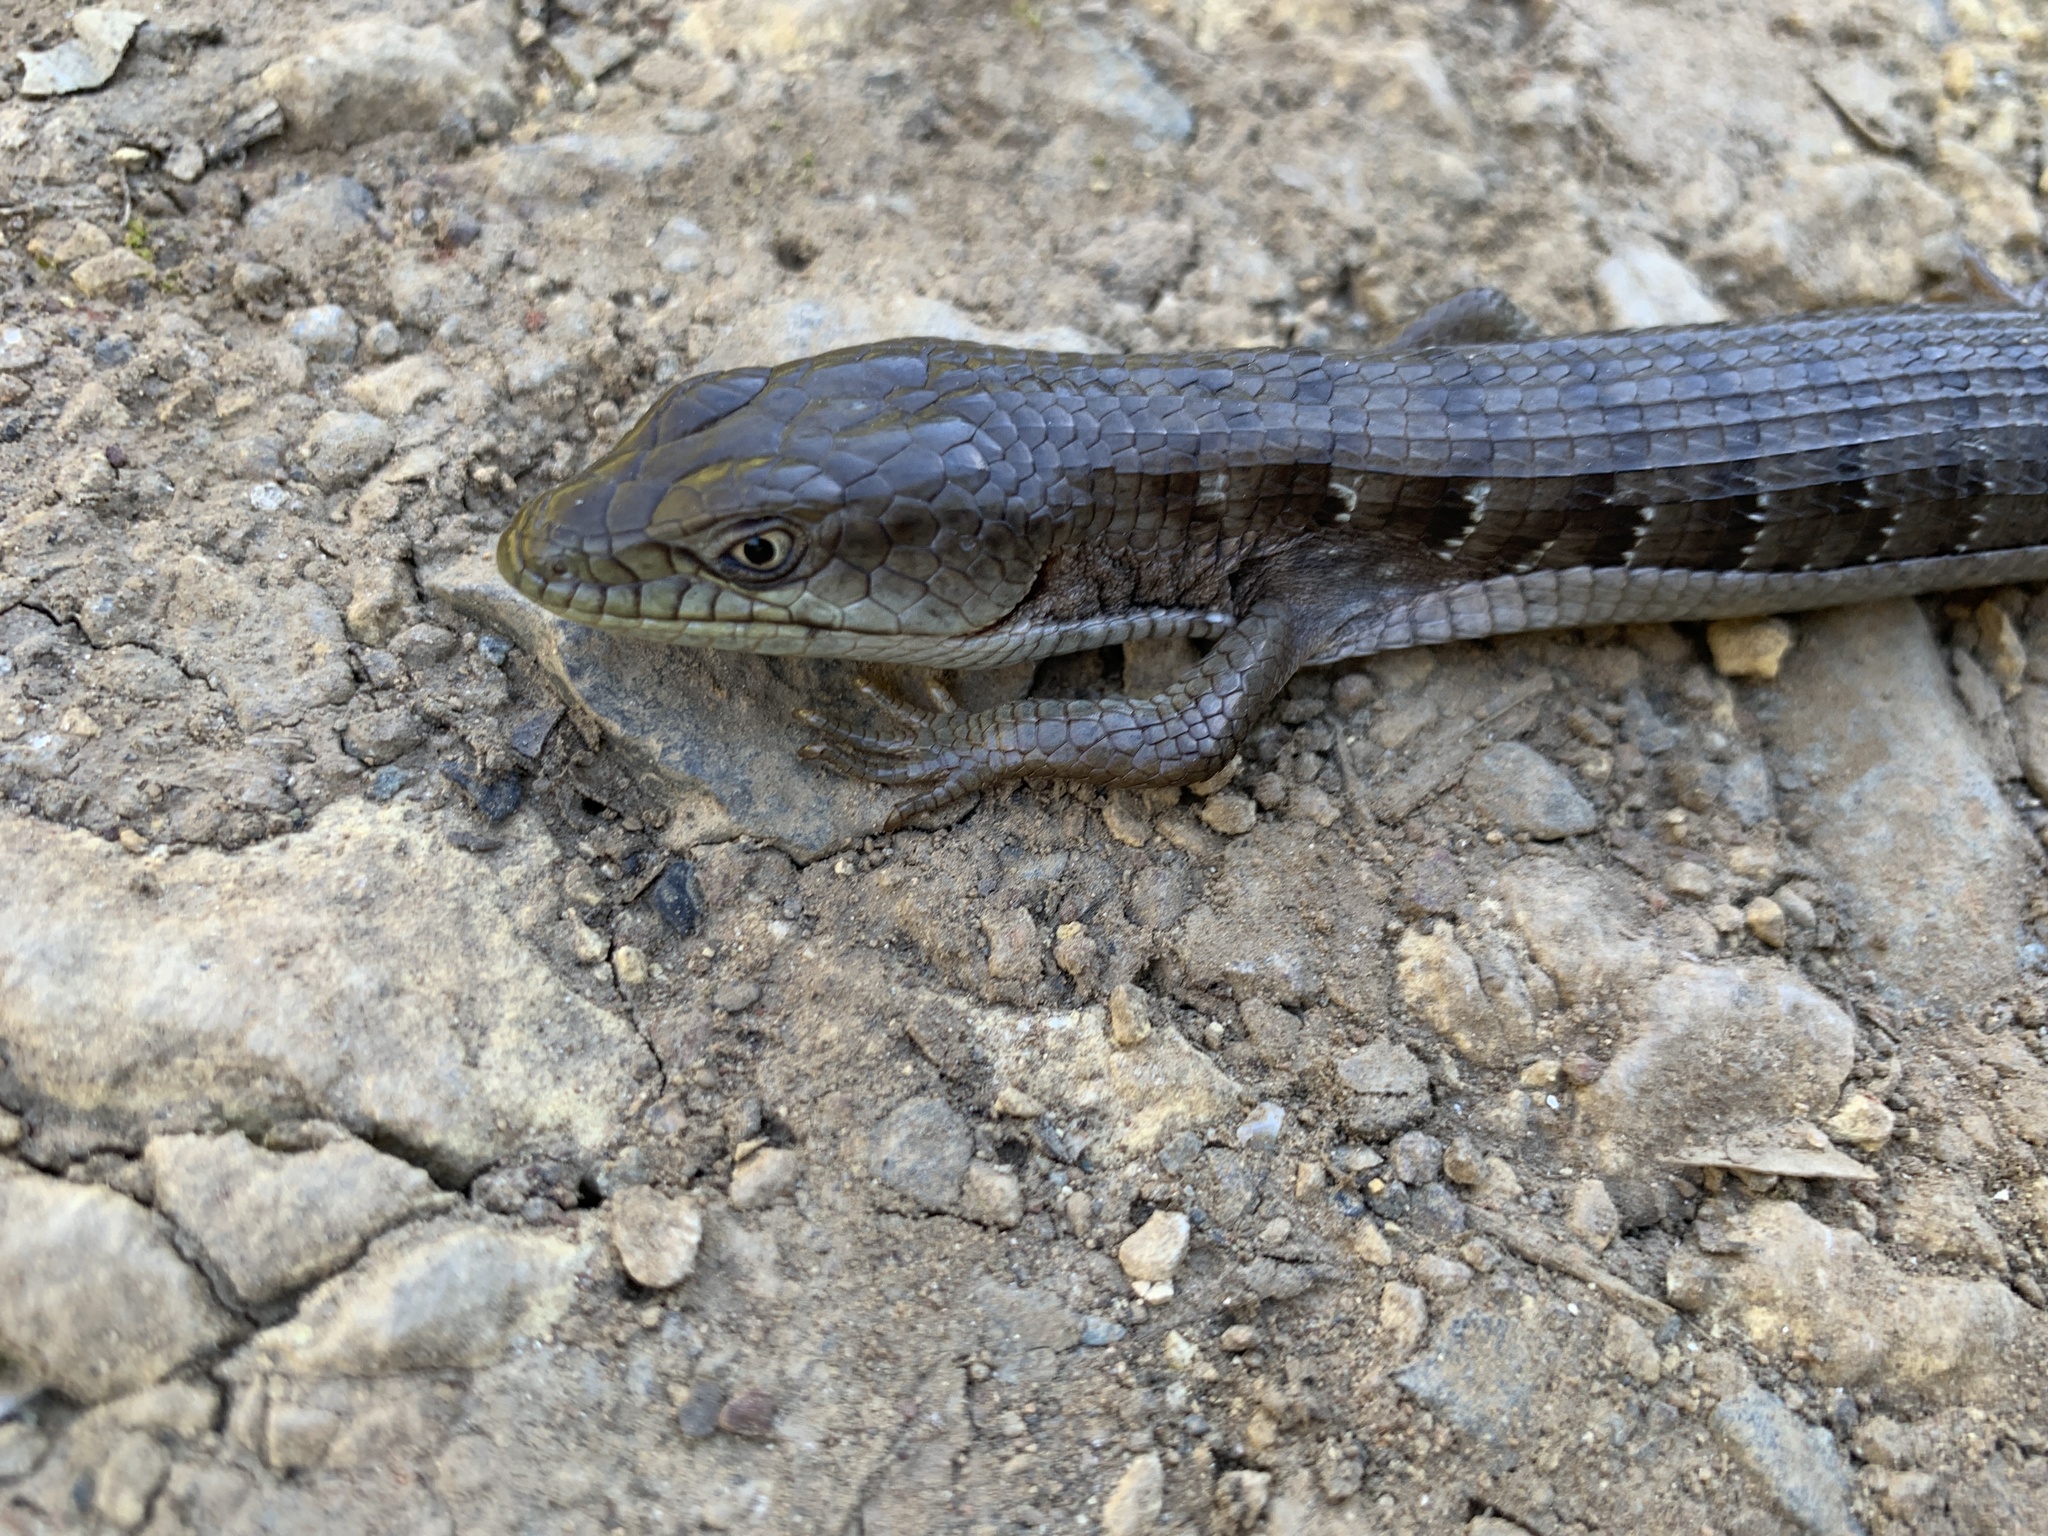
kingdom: Animalia
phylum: Chordata
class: Squamata
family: Anguidae
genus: Elgaria
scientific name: Elgaria multicarinata
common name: Southern alligator lizard
